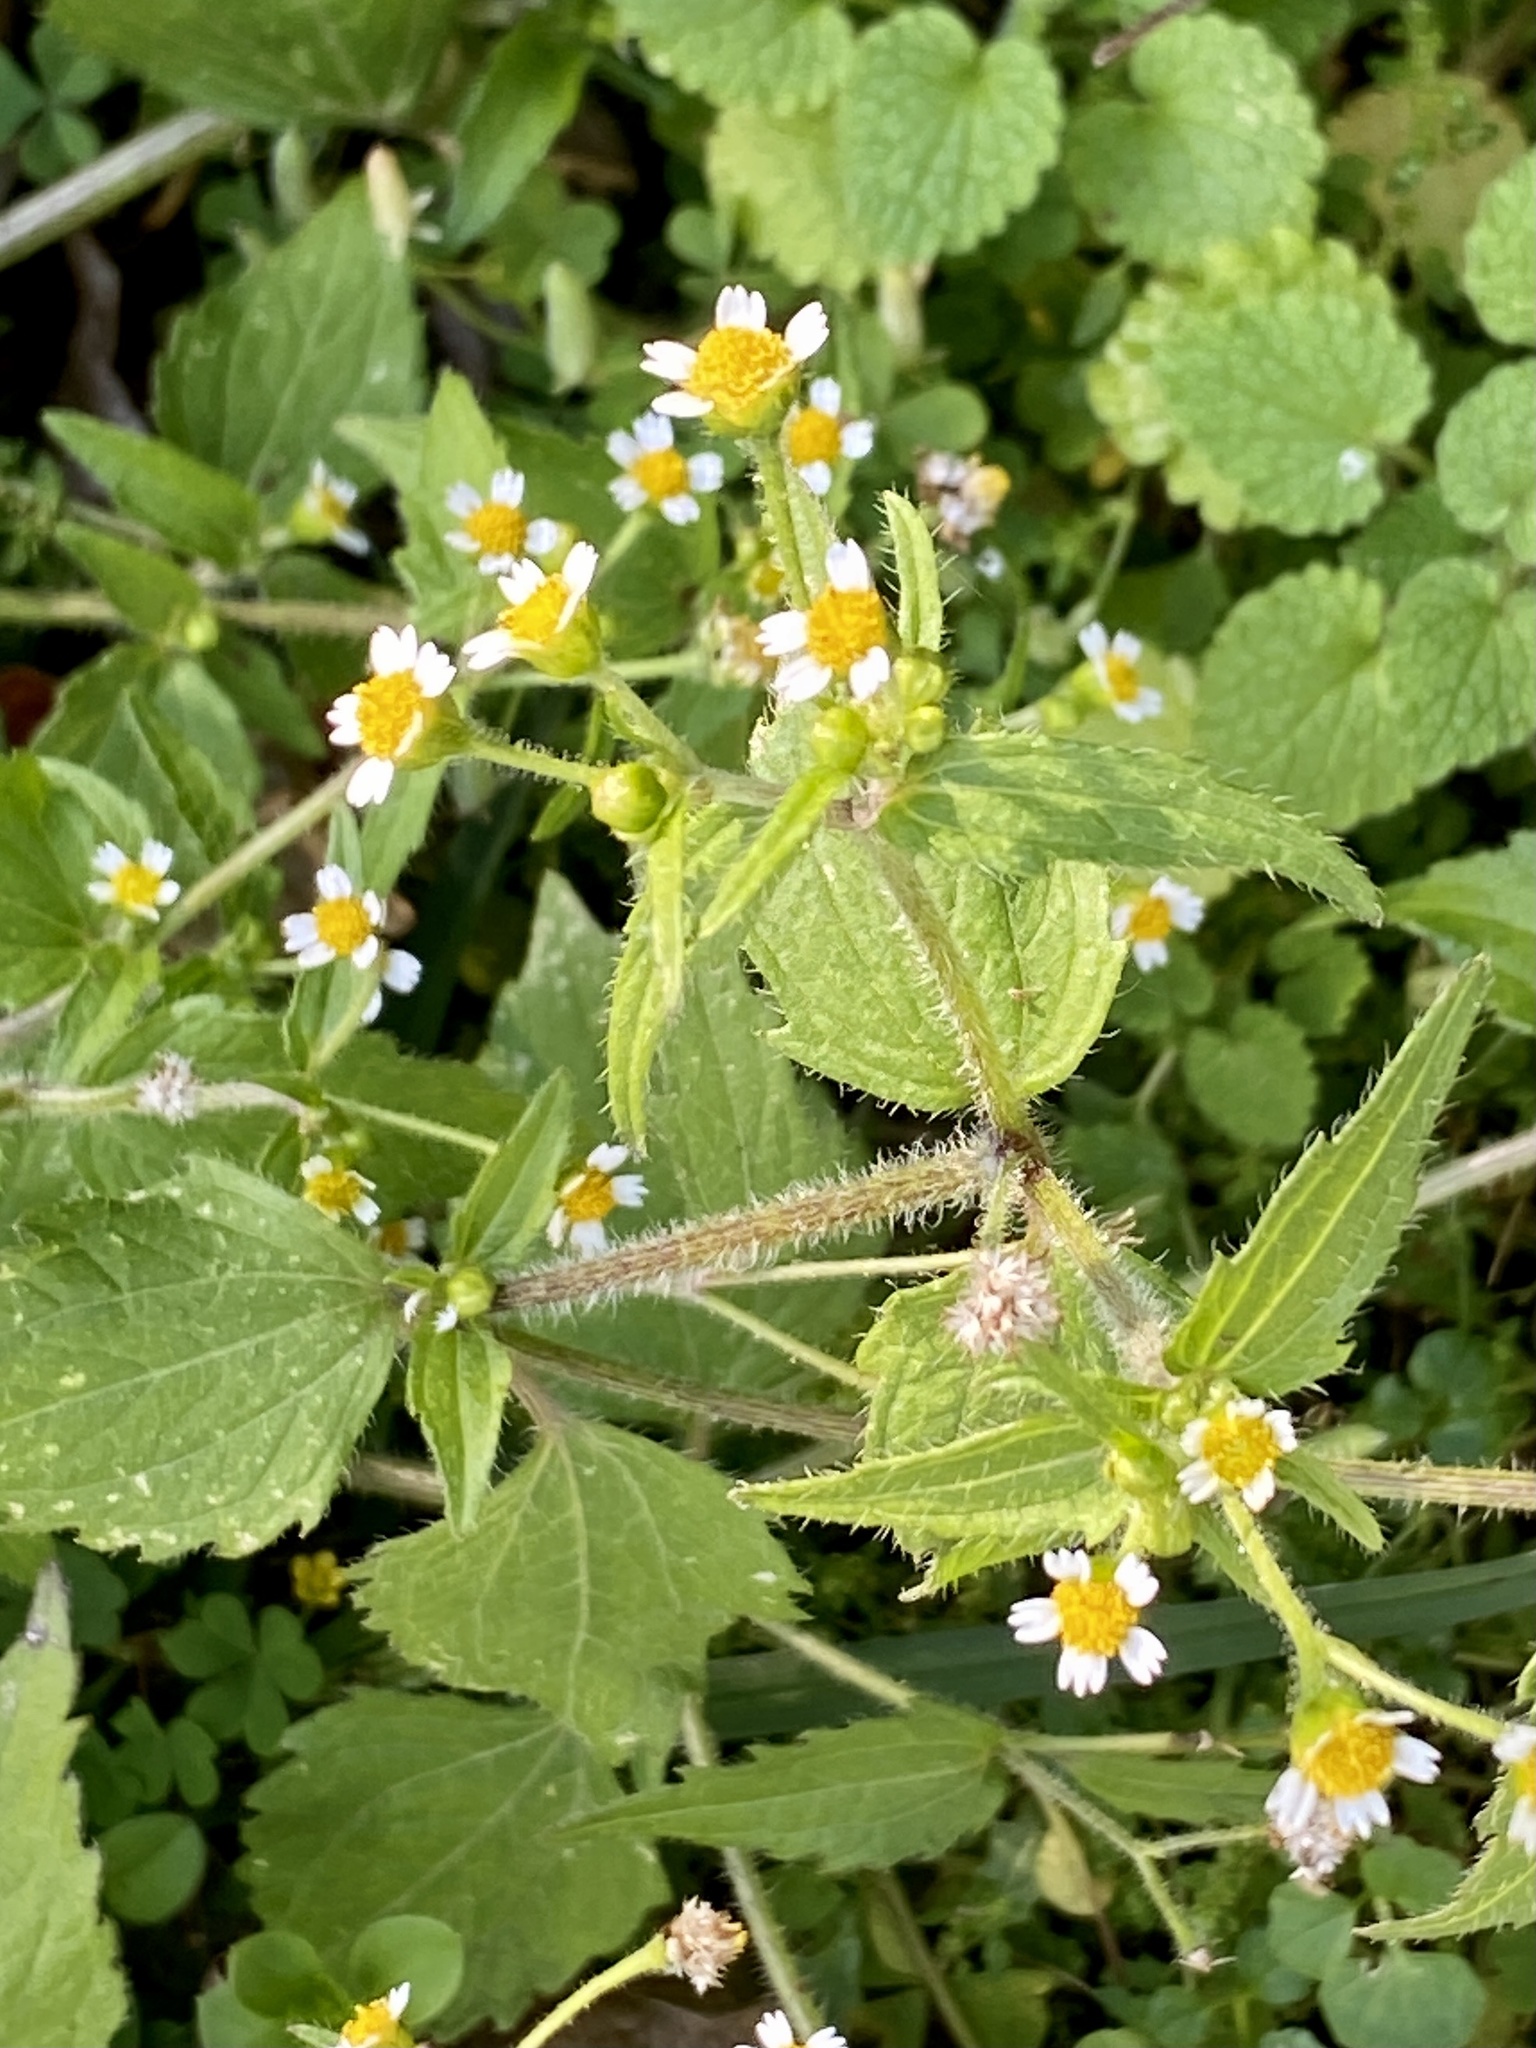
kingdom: Plantae
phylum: Tracheophyta
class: Magnoliopsida
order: Asterales
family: Asteraceae
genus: Galinsoga
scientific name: Galinsoga quadriradiata
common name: Shaggy soldier
